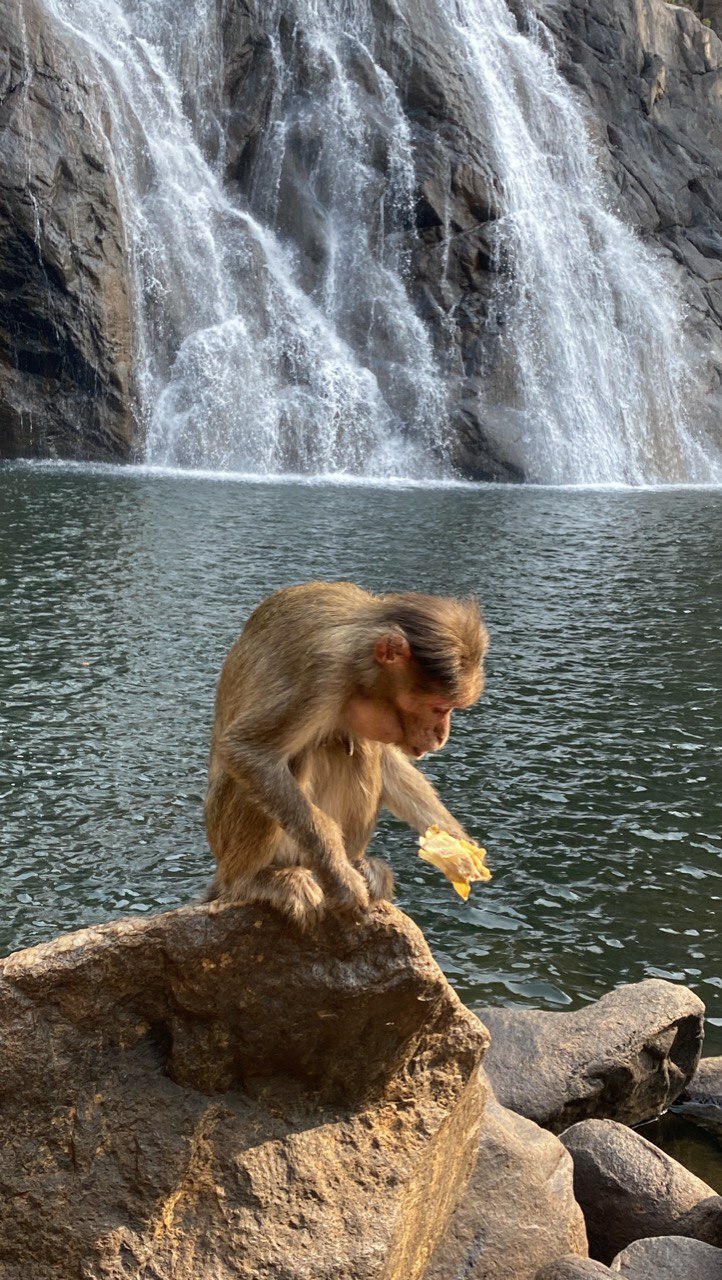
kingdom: Animalia
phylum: Chordata
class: Mammalia
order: Primates
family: Cercopithecidae
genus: Macaca
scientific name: Macaca radiata
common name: Bonnet macaque
